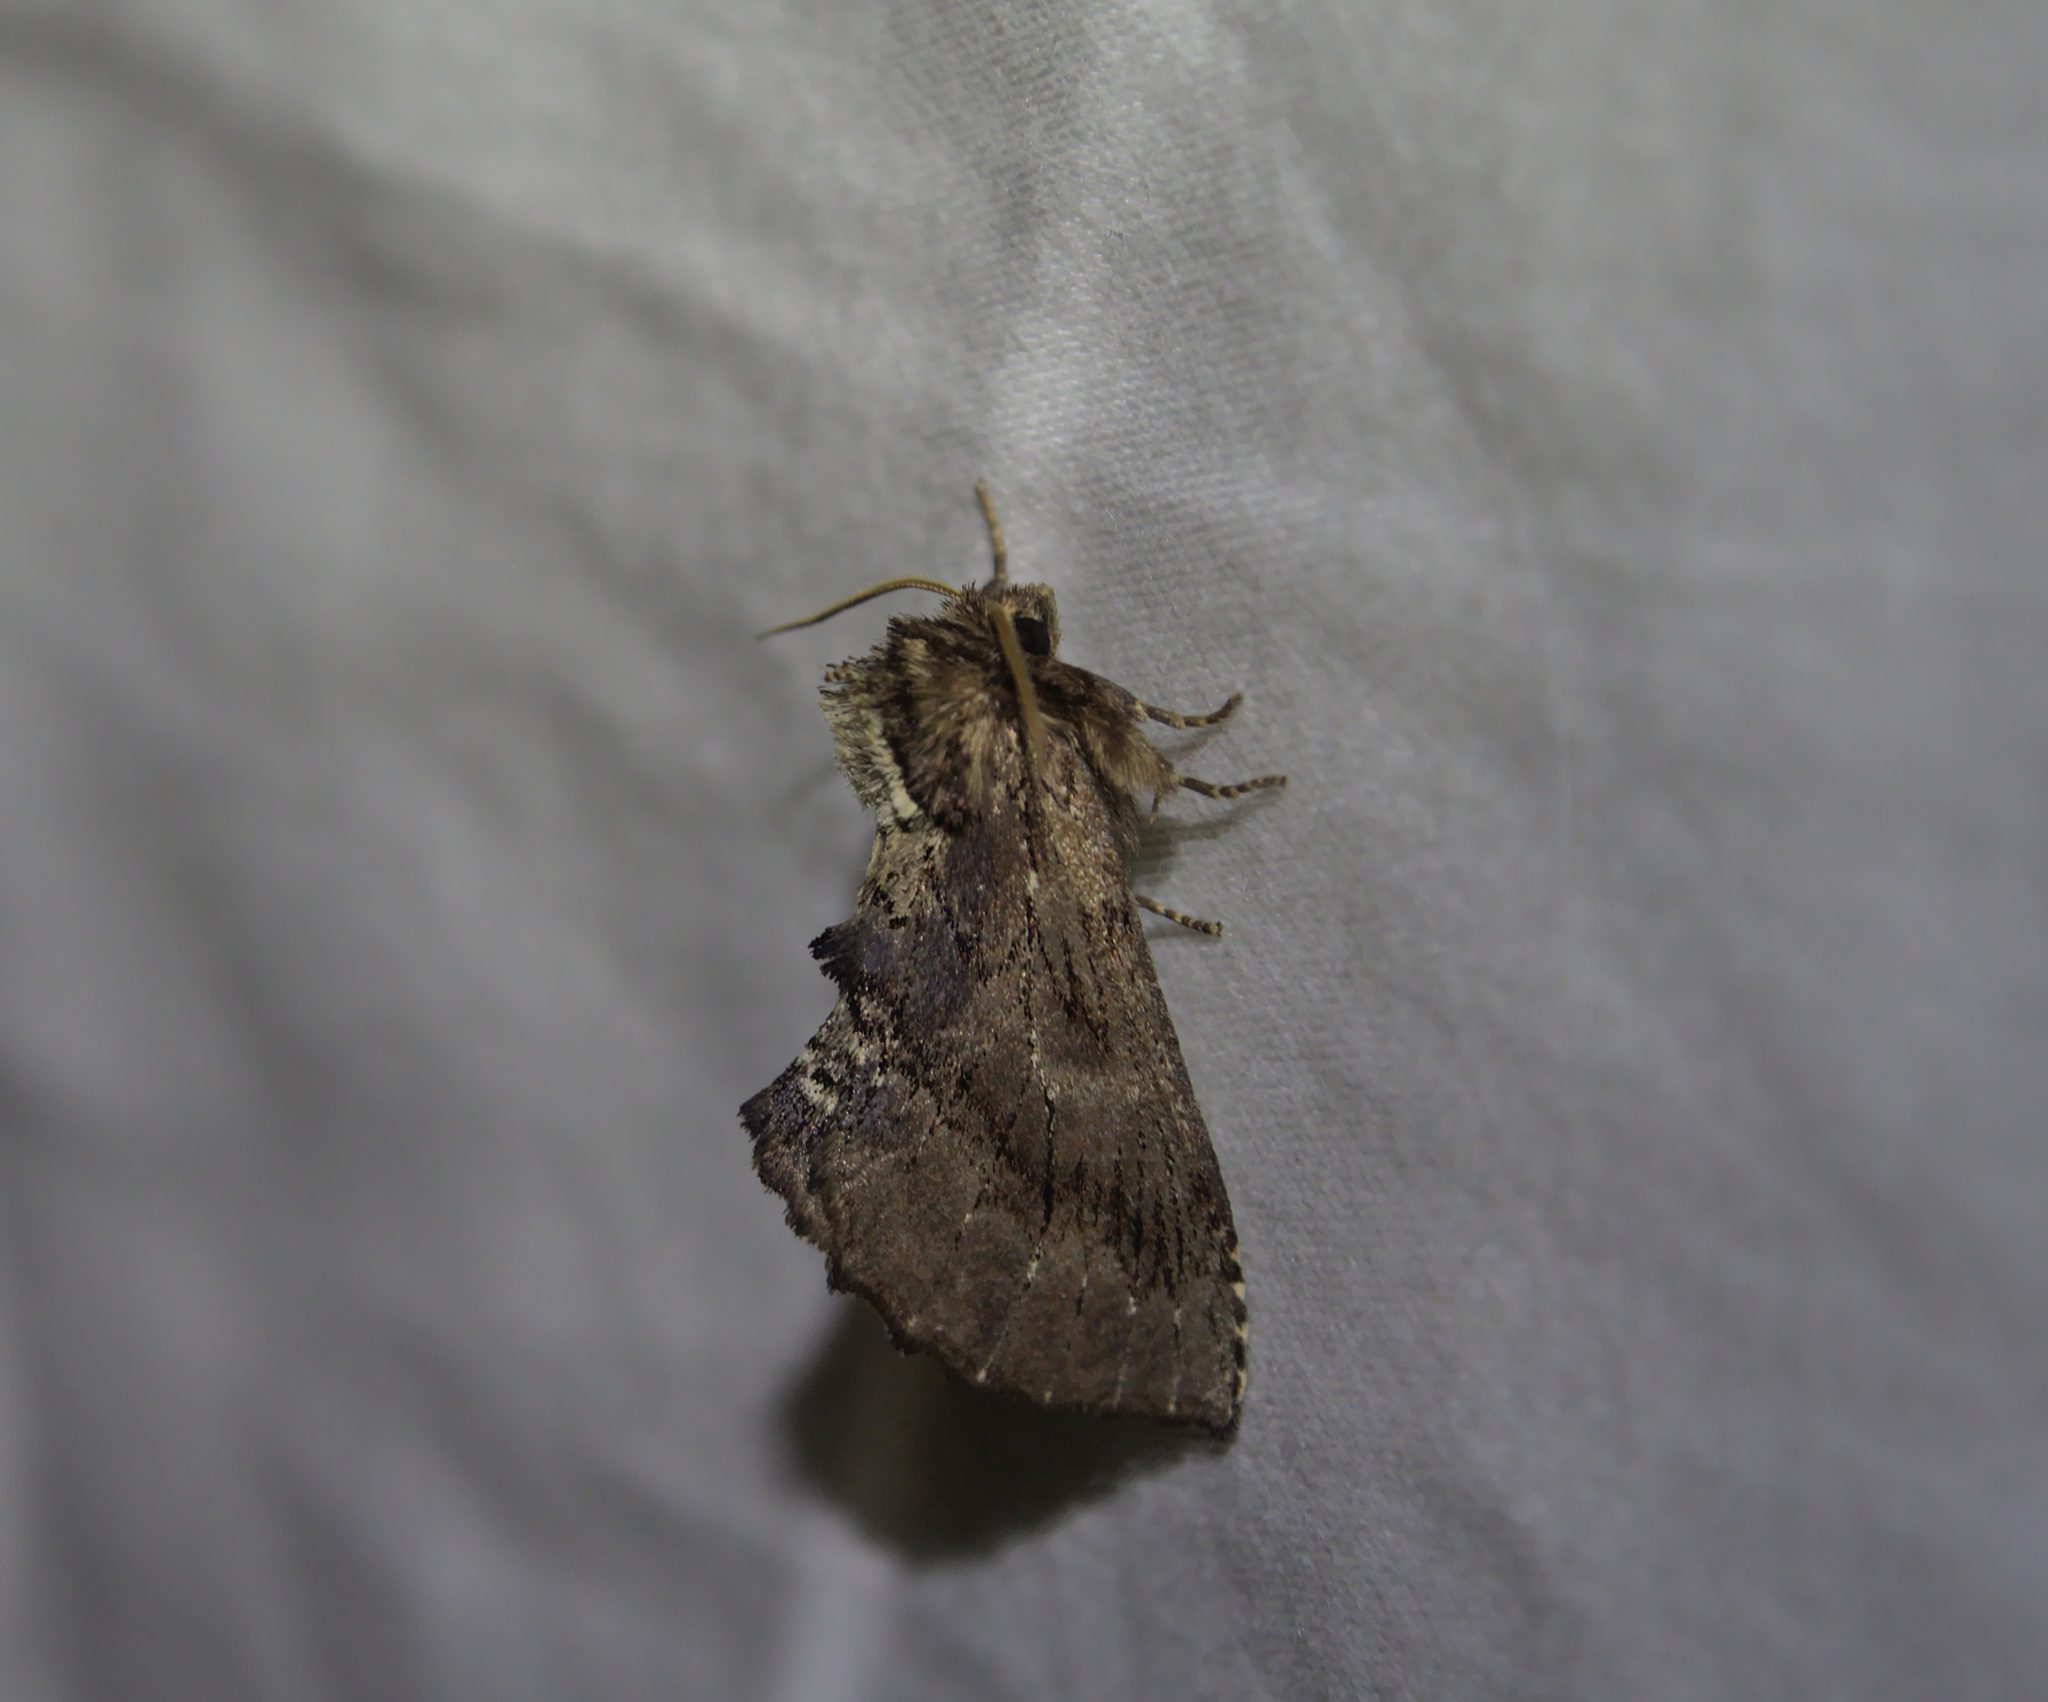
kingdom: Animalia
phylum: Arthropoda
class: Insecta
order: Lepidoptera
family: Notodontidae
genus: Ptilodon
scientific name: Ptilodon capucina
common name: Coxcomb prominent
